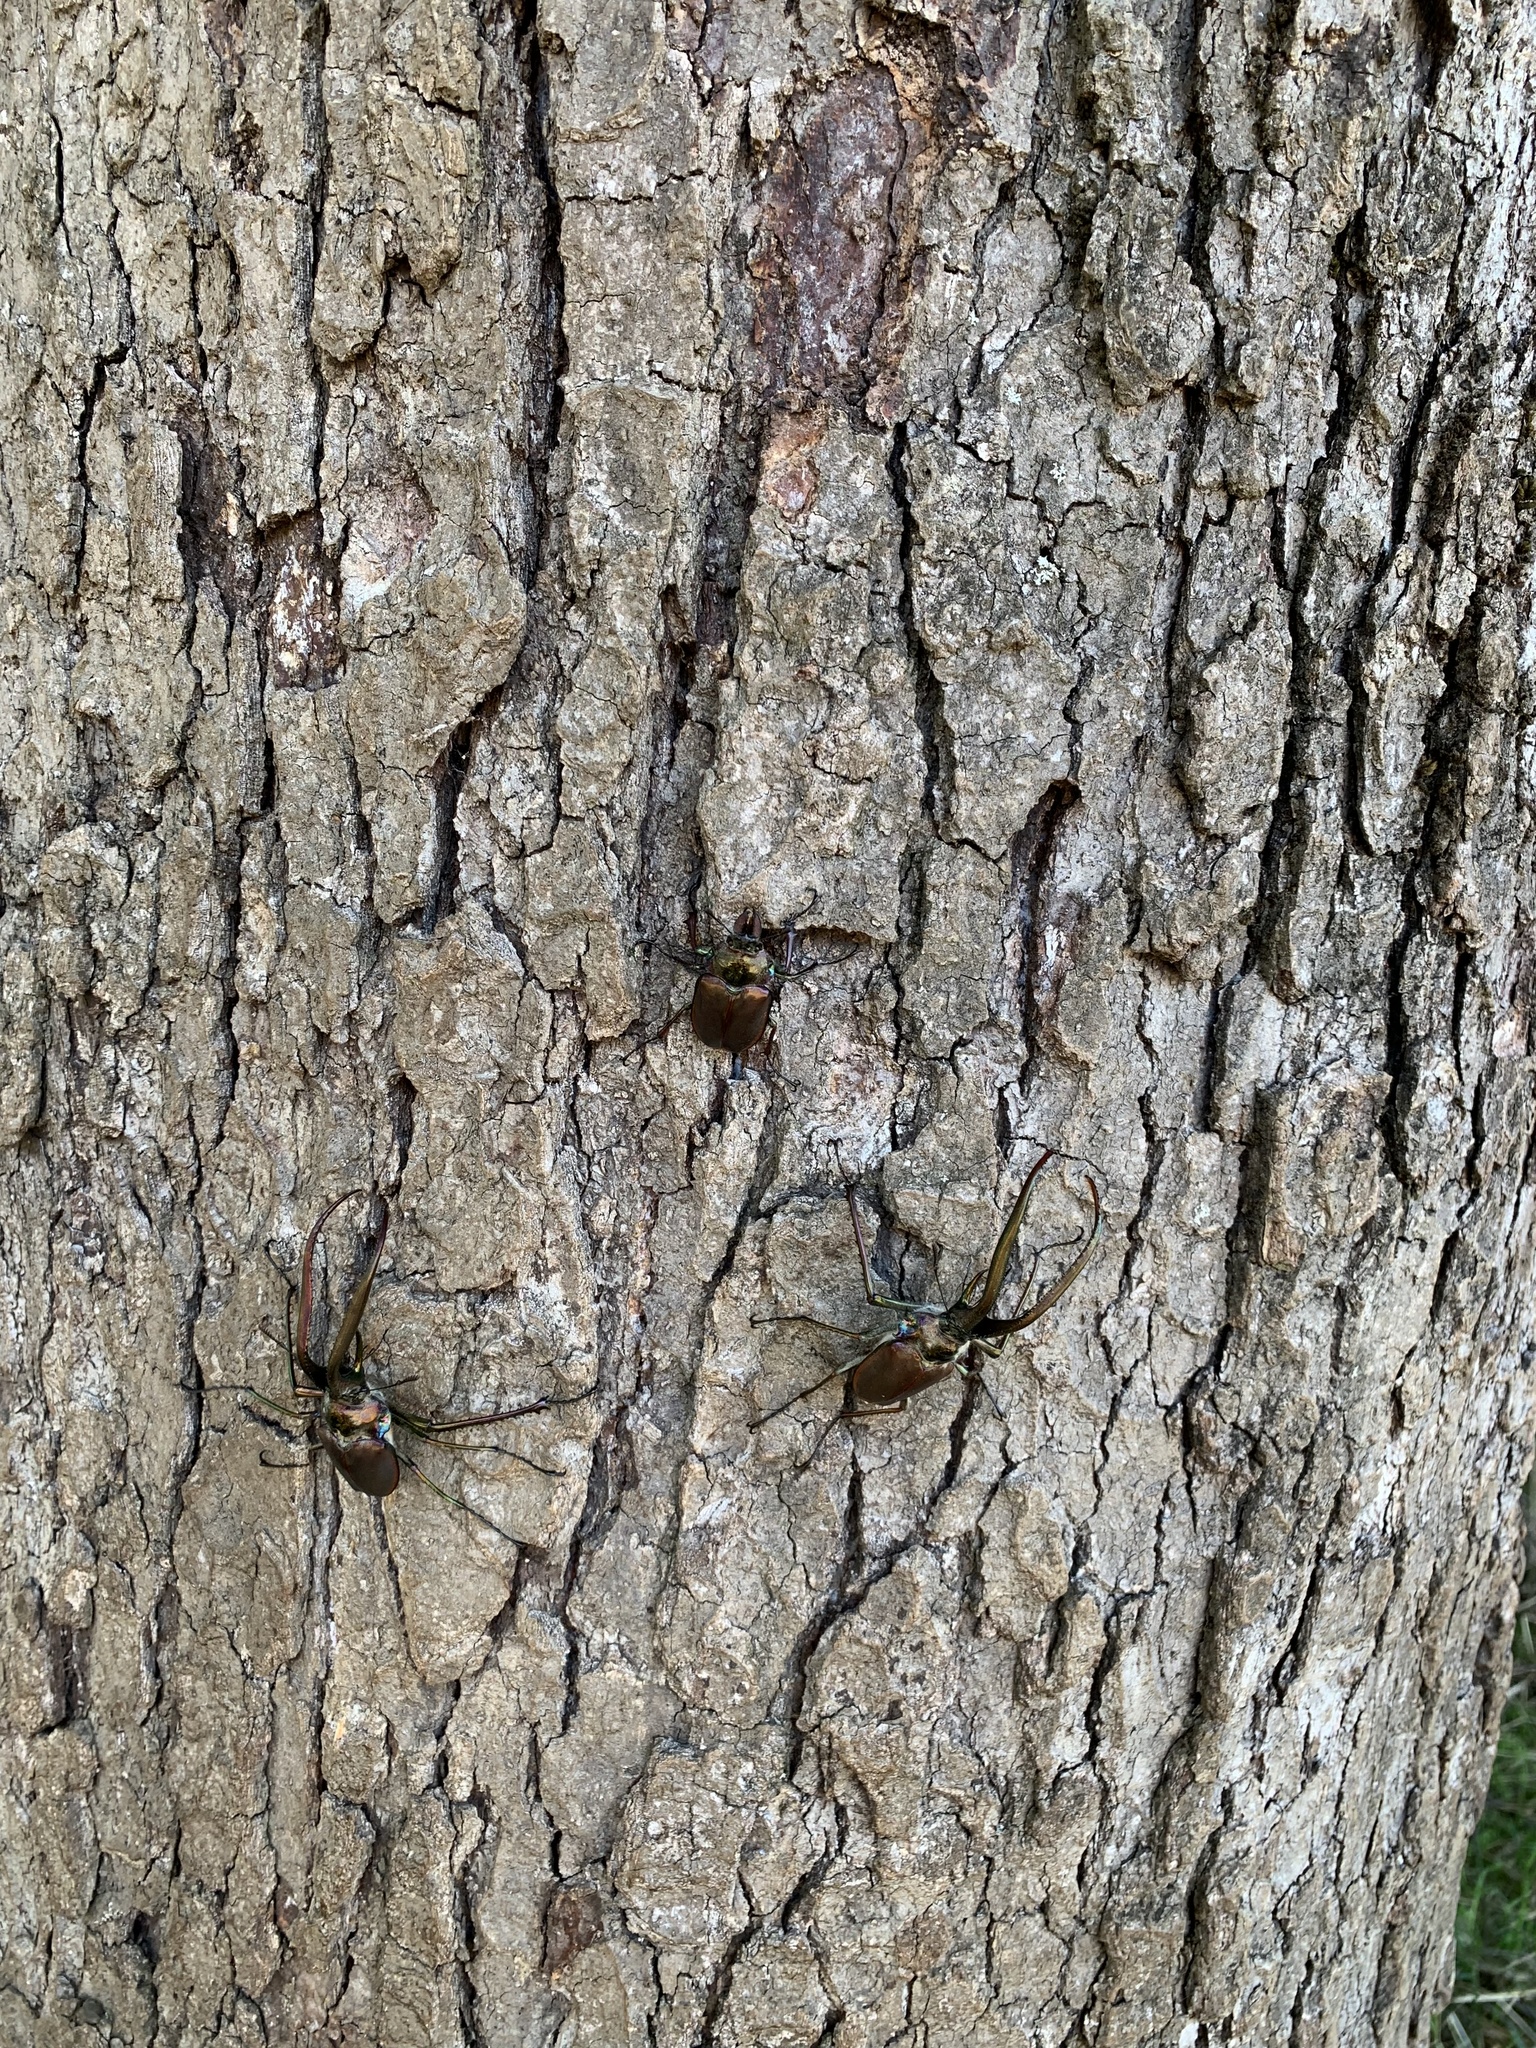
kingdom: Animalia
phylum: Arthropoda
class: Insecta
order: Coleoptera
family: Lucanidae
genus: Chiasognathus
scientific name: Chiasognathus grantii
